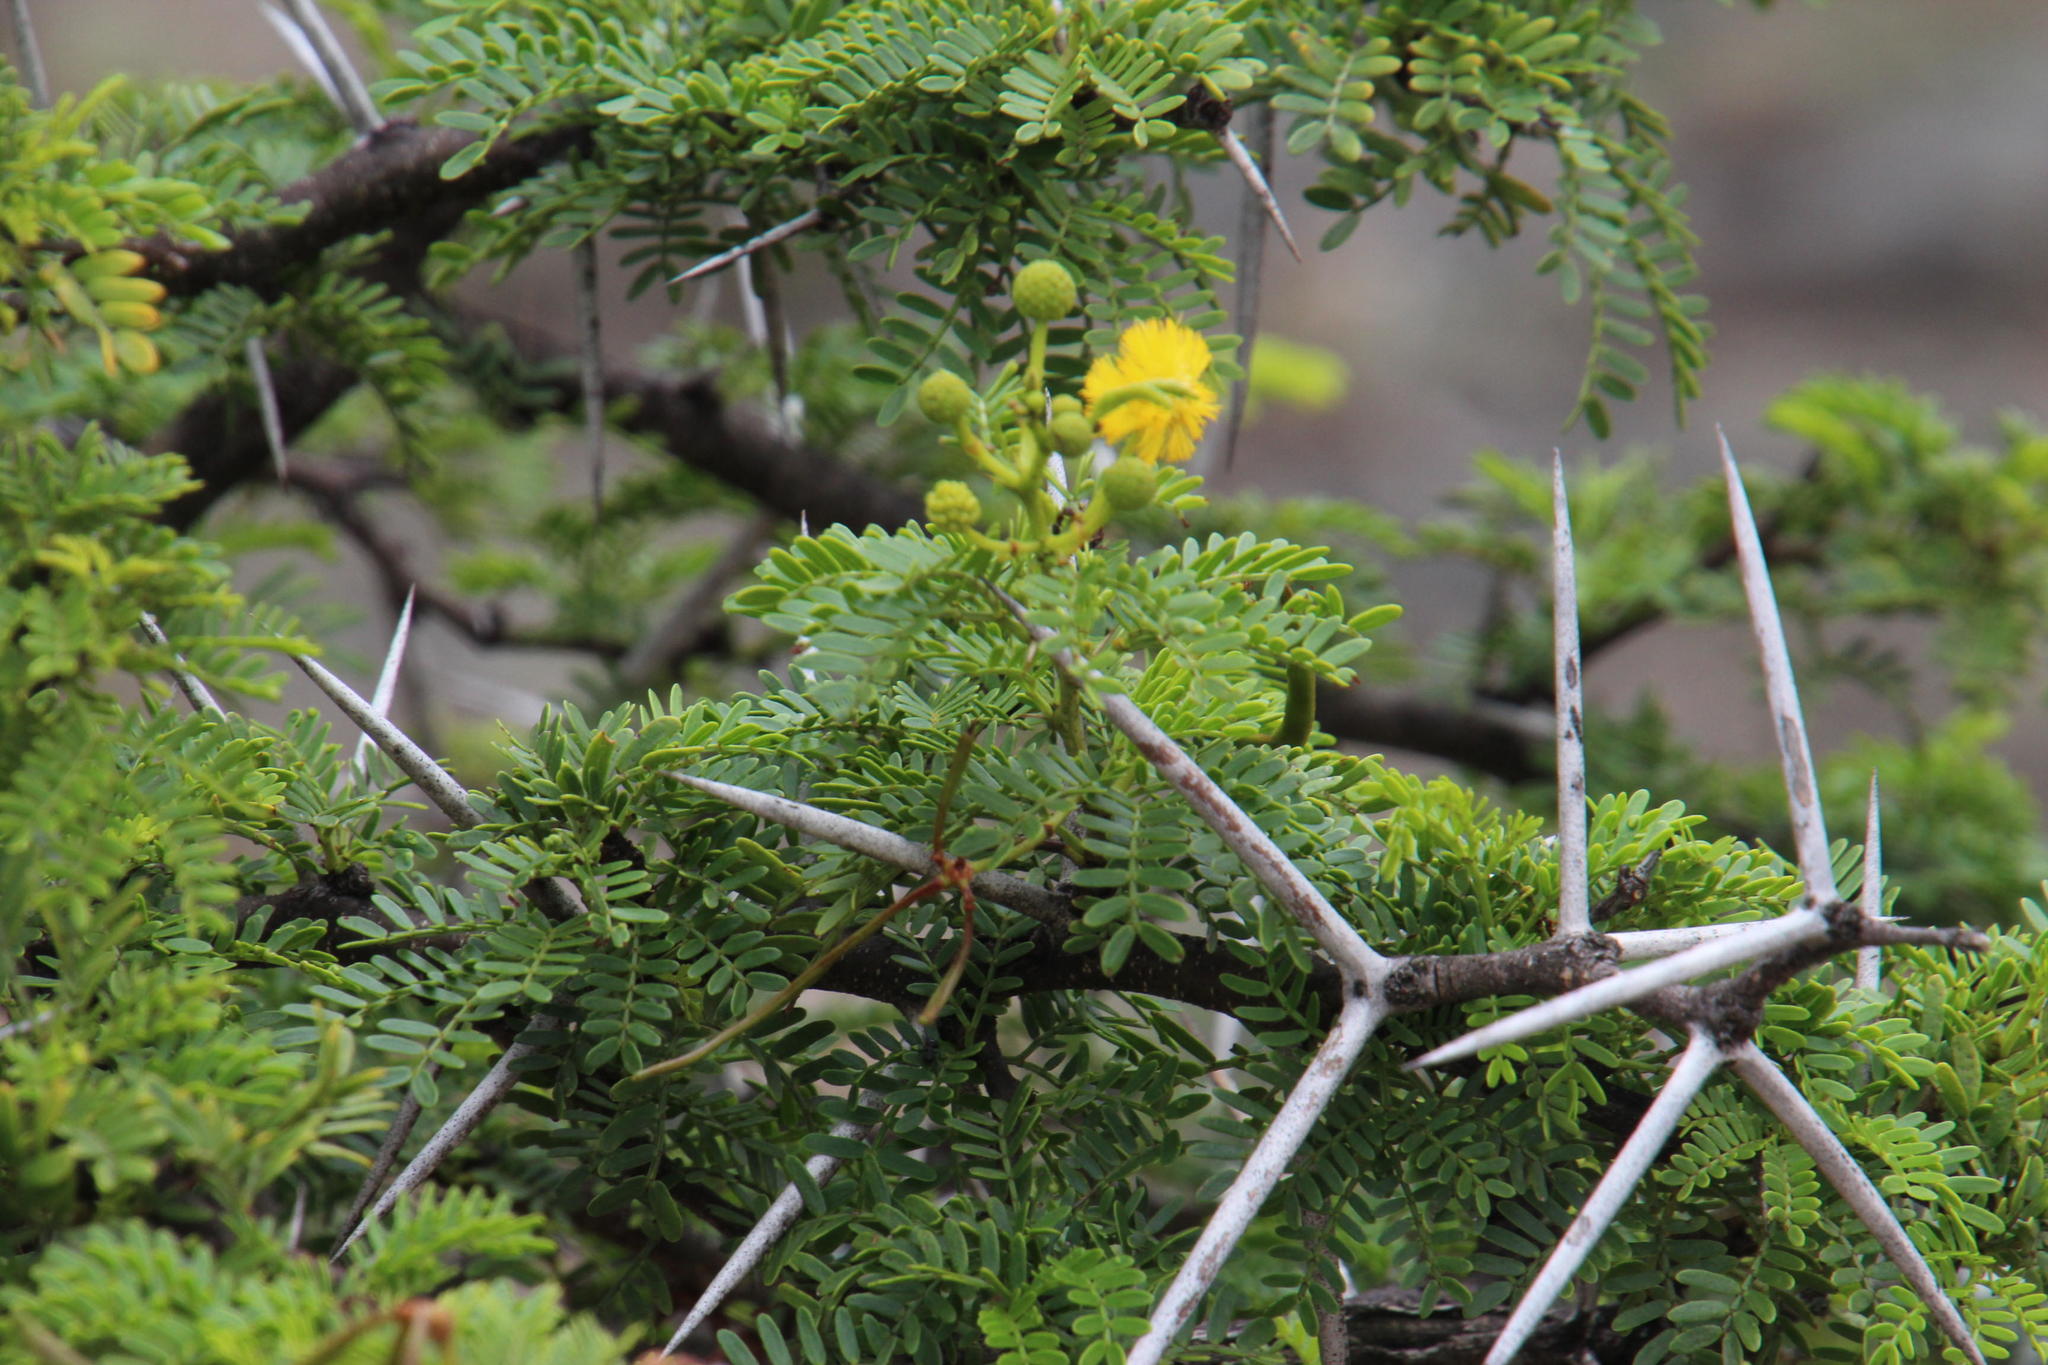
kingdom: Plantae
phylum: Tracheophyta
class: Magnoliopsida
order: Fabales
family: Fabaceae
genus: Vachellia
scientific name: Vachellia karroo
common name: Sweet thorn
